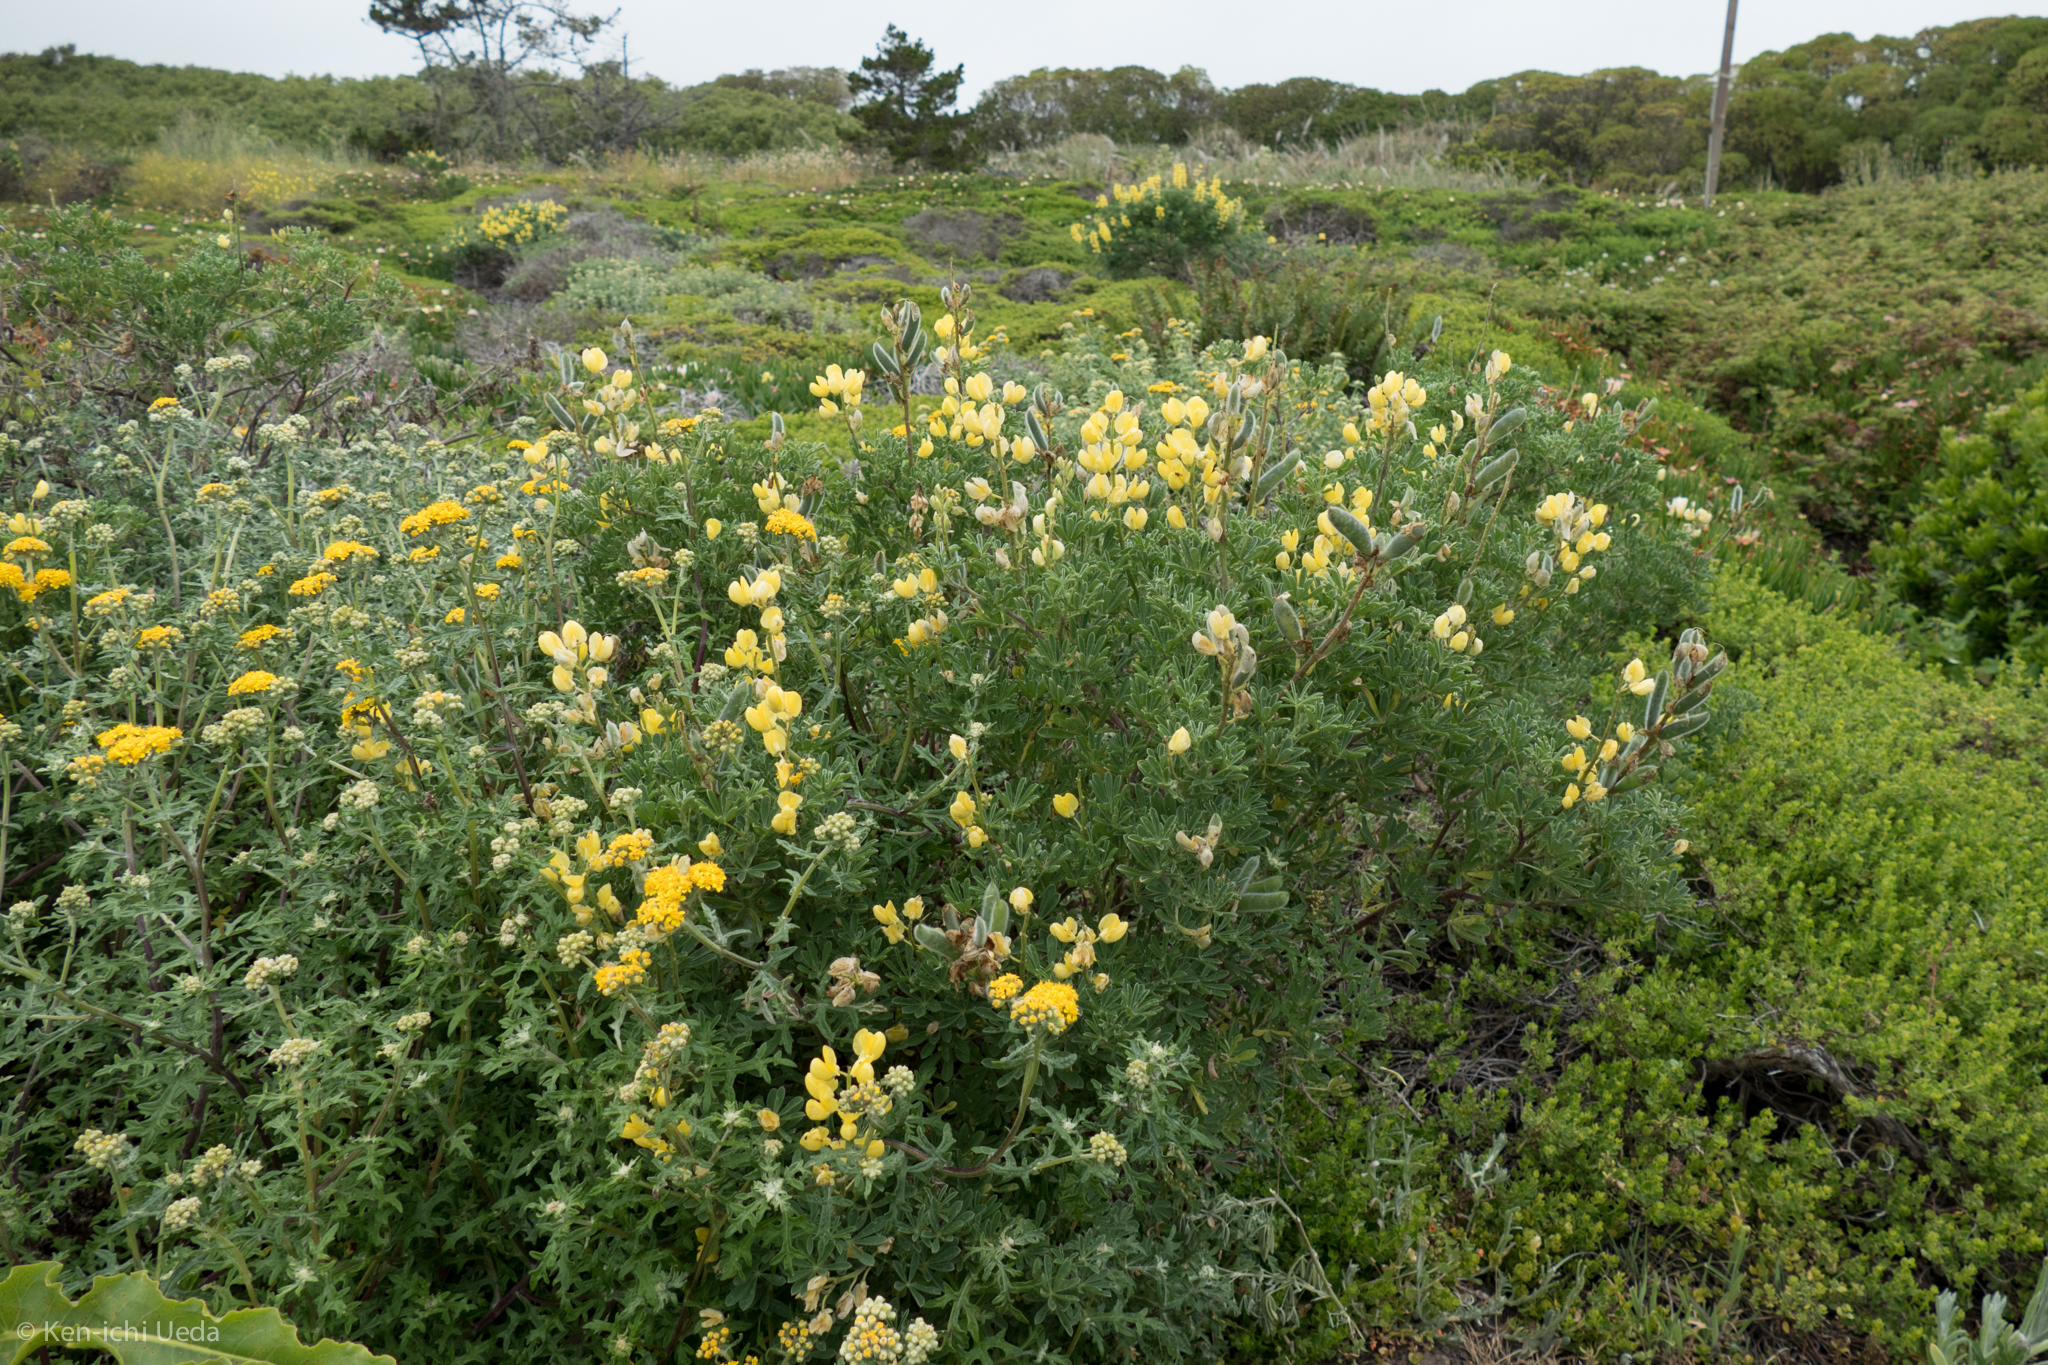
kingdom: Plantae
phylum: Tracheophyta
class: Magnoliopsida
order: Fabales
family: Fabaceae
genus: Lupinus
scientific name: Lupinus arboreus
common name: Yellow bush lupine
